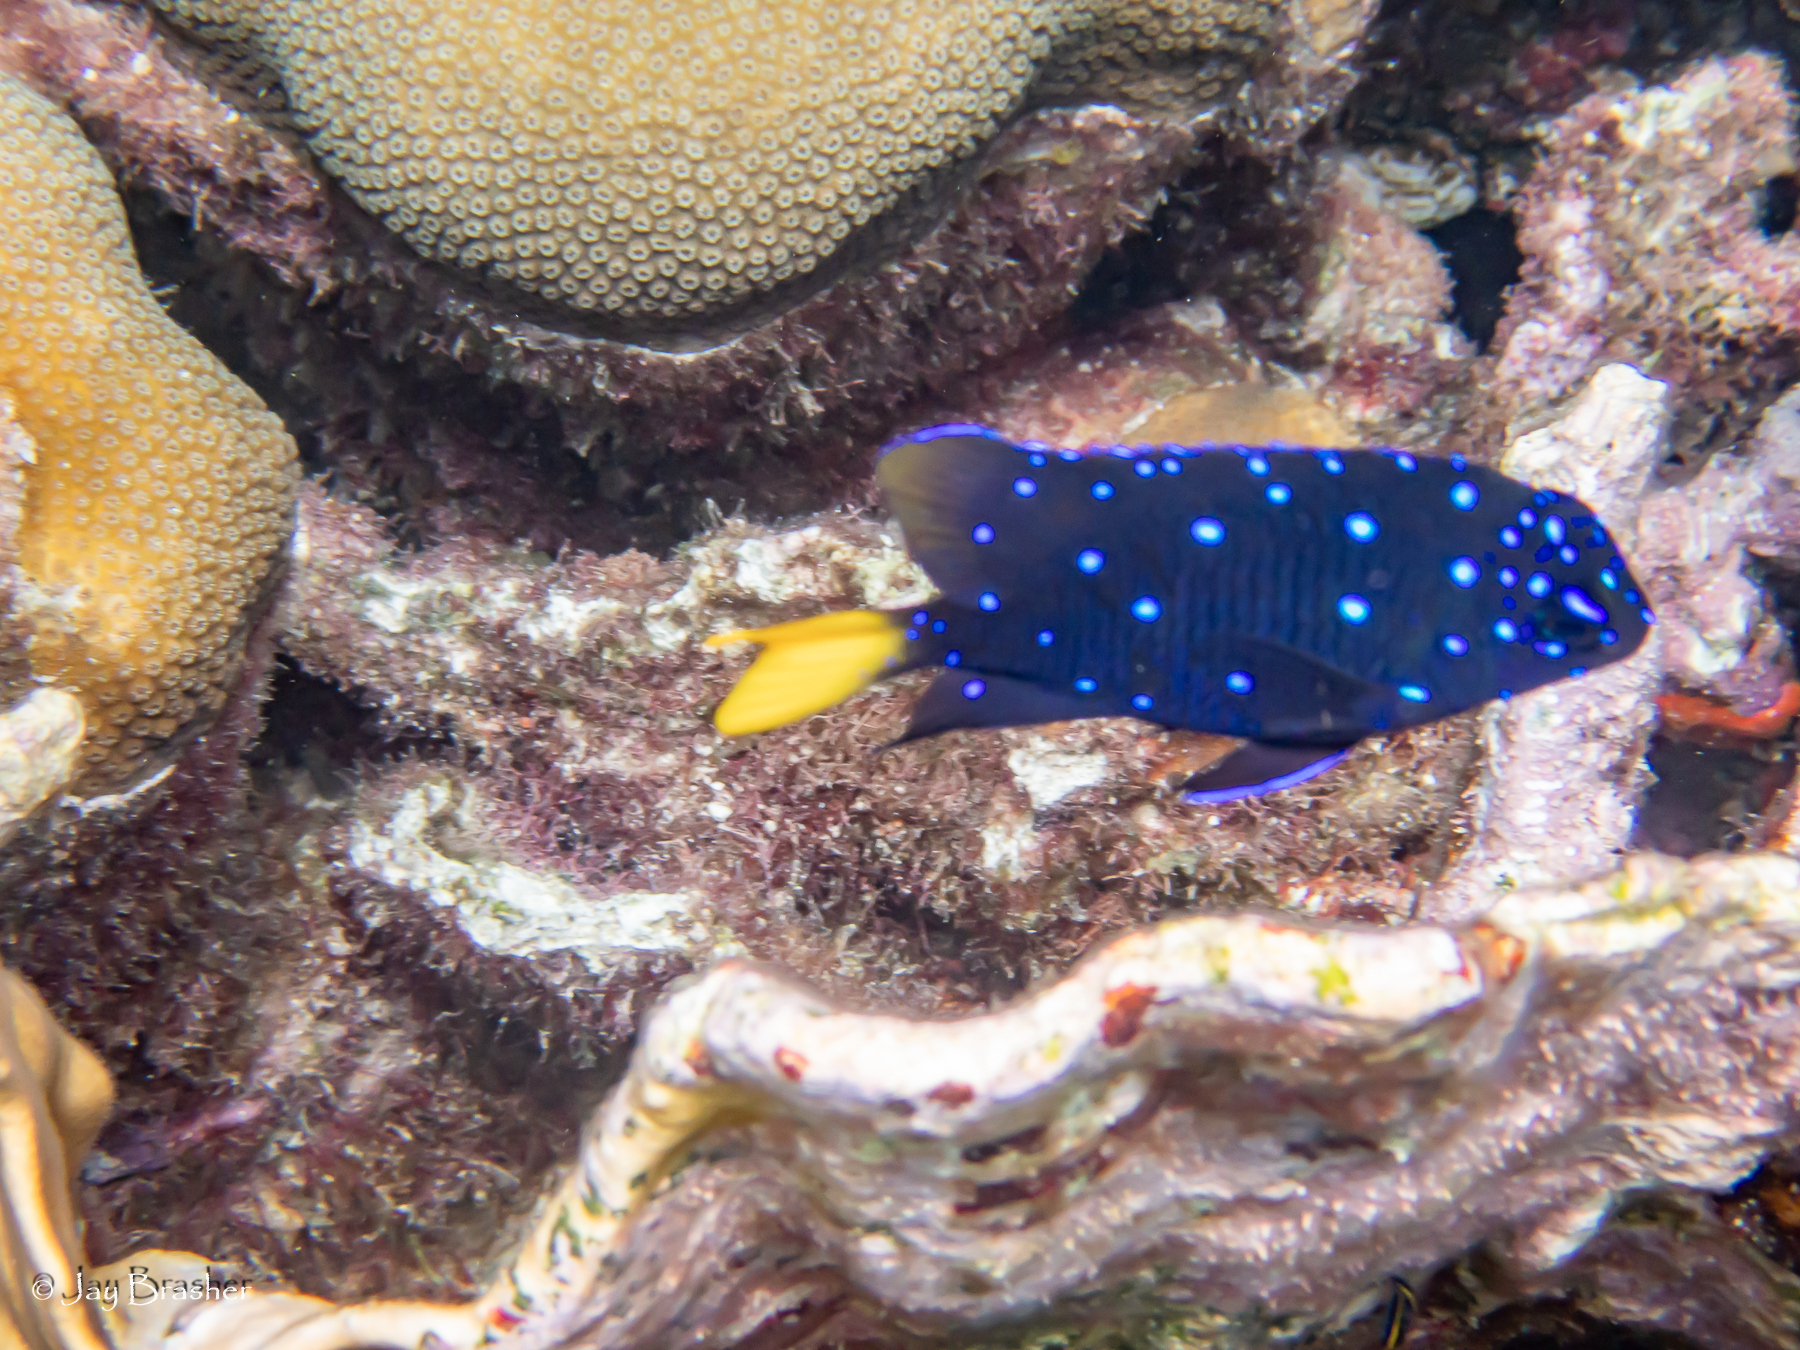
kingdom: Animalia
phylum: Chordata
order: Perciformes
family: Pomacentridae
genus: Microspathodon
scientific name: Microspathodon chrysurus
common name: Yellowtail damselfish
